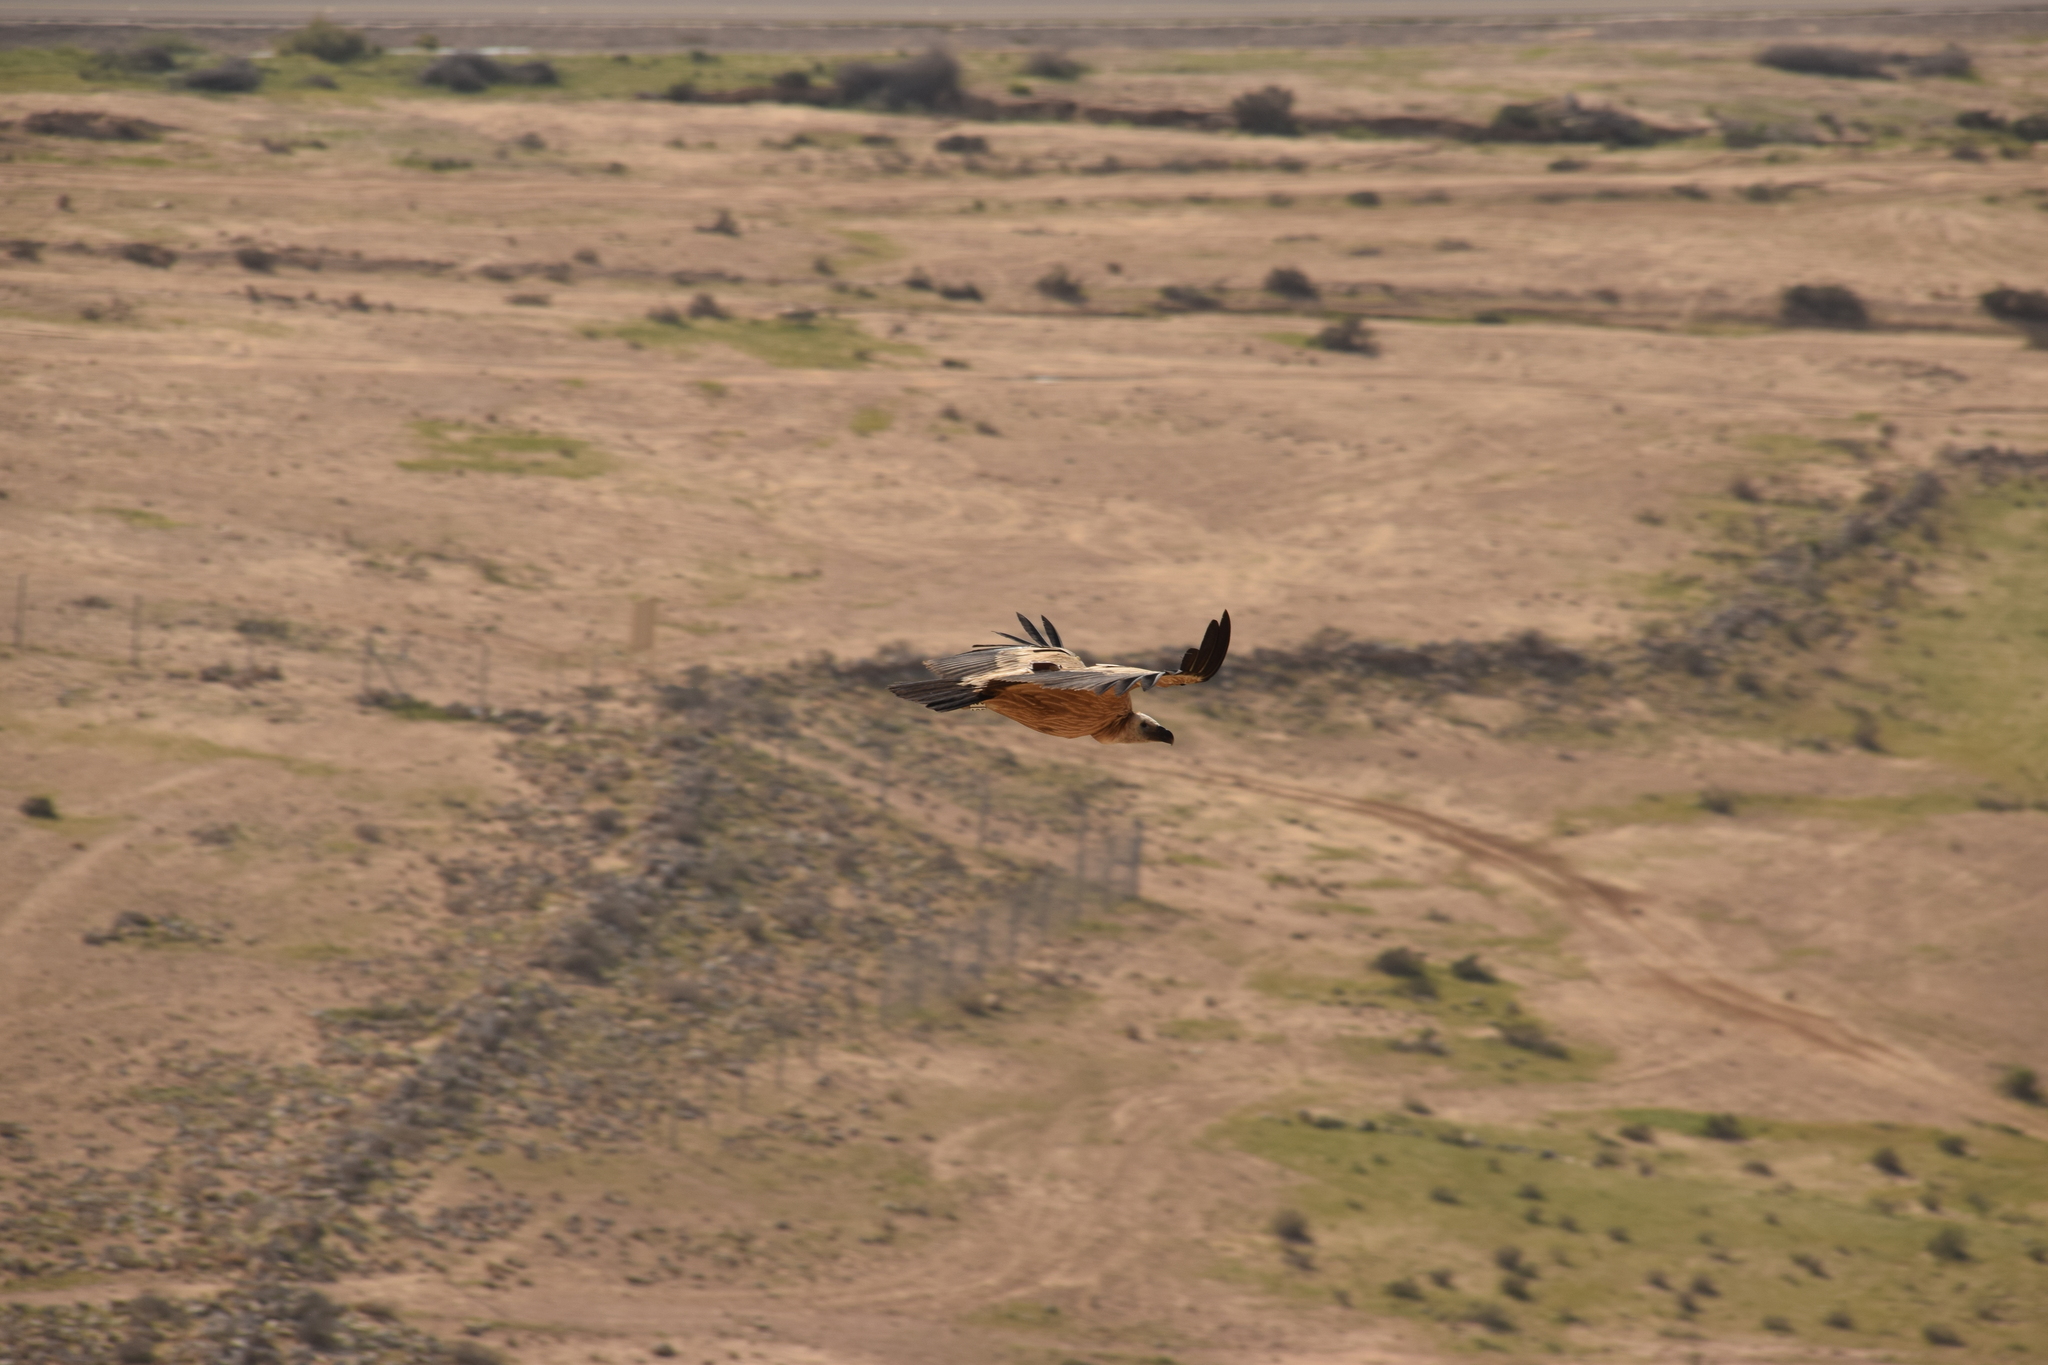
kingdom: Animalia
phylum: Chordata
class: Aves
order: Accipitriformes
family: Accipitridae
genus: Gyps
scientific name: Gyps fulvus
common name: Griffon vulture
